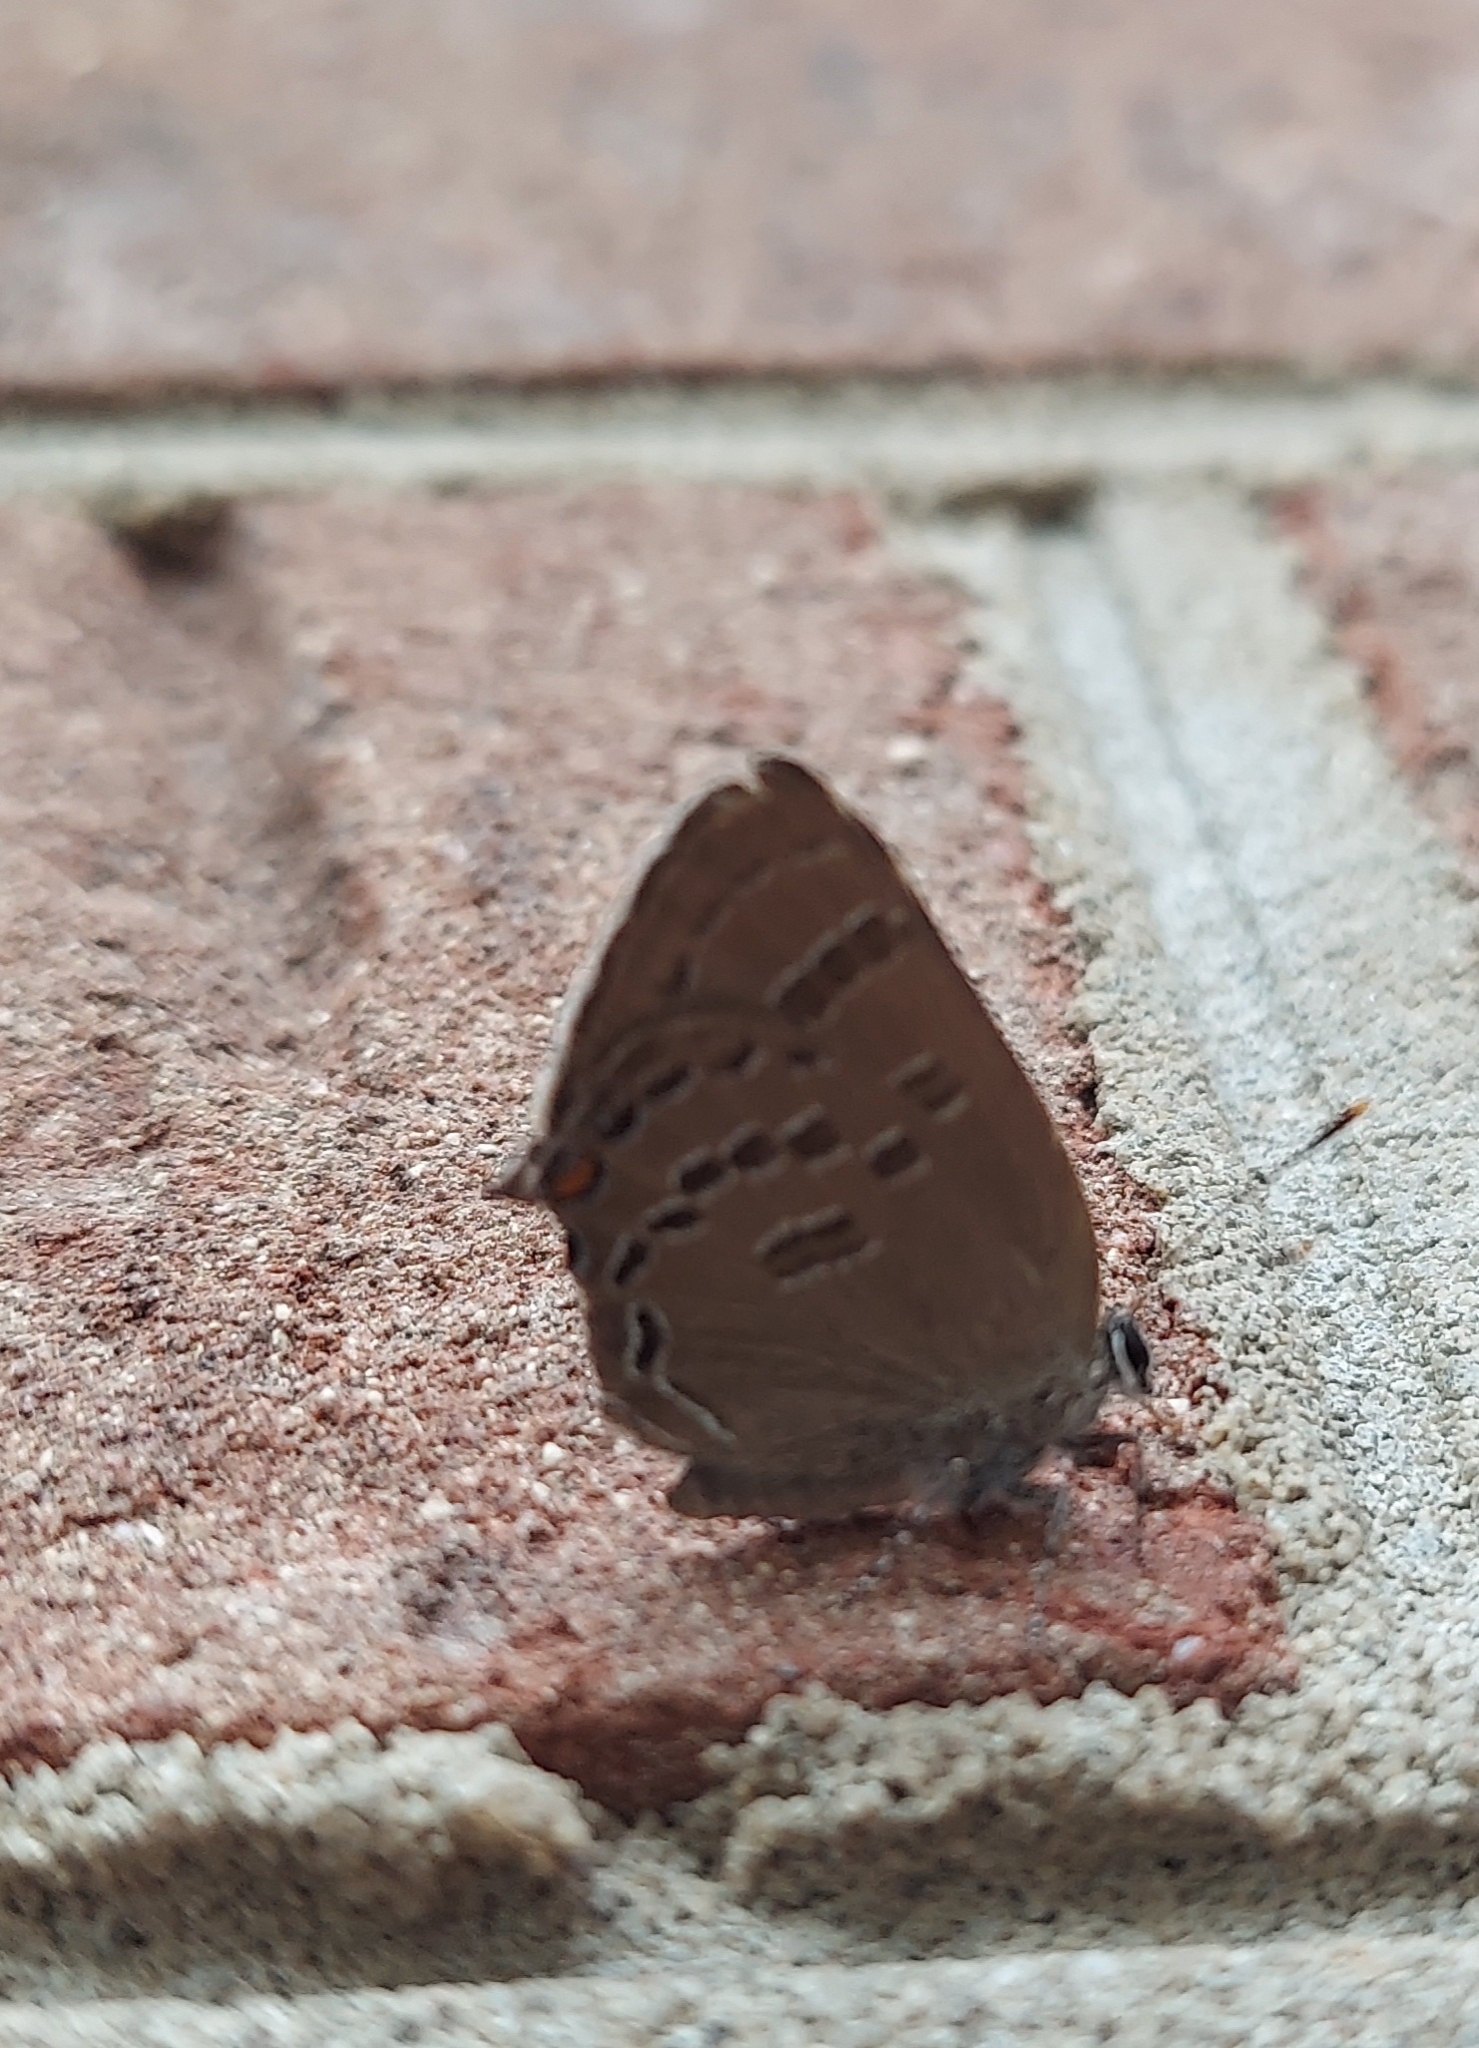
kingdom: Animalia
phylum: Arthropoda
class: Insecta
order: Lepidoptera
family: Lycaenidae
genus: Satyrium
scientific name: Satyrium calanus
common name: Banded hairstreak
